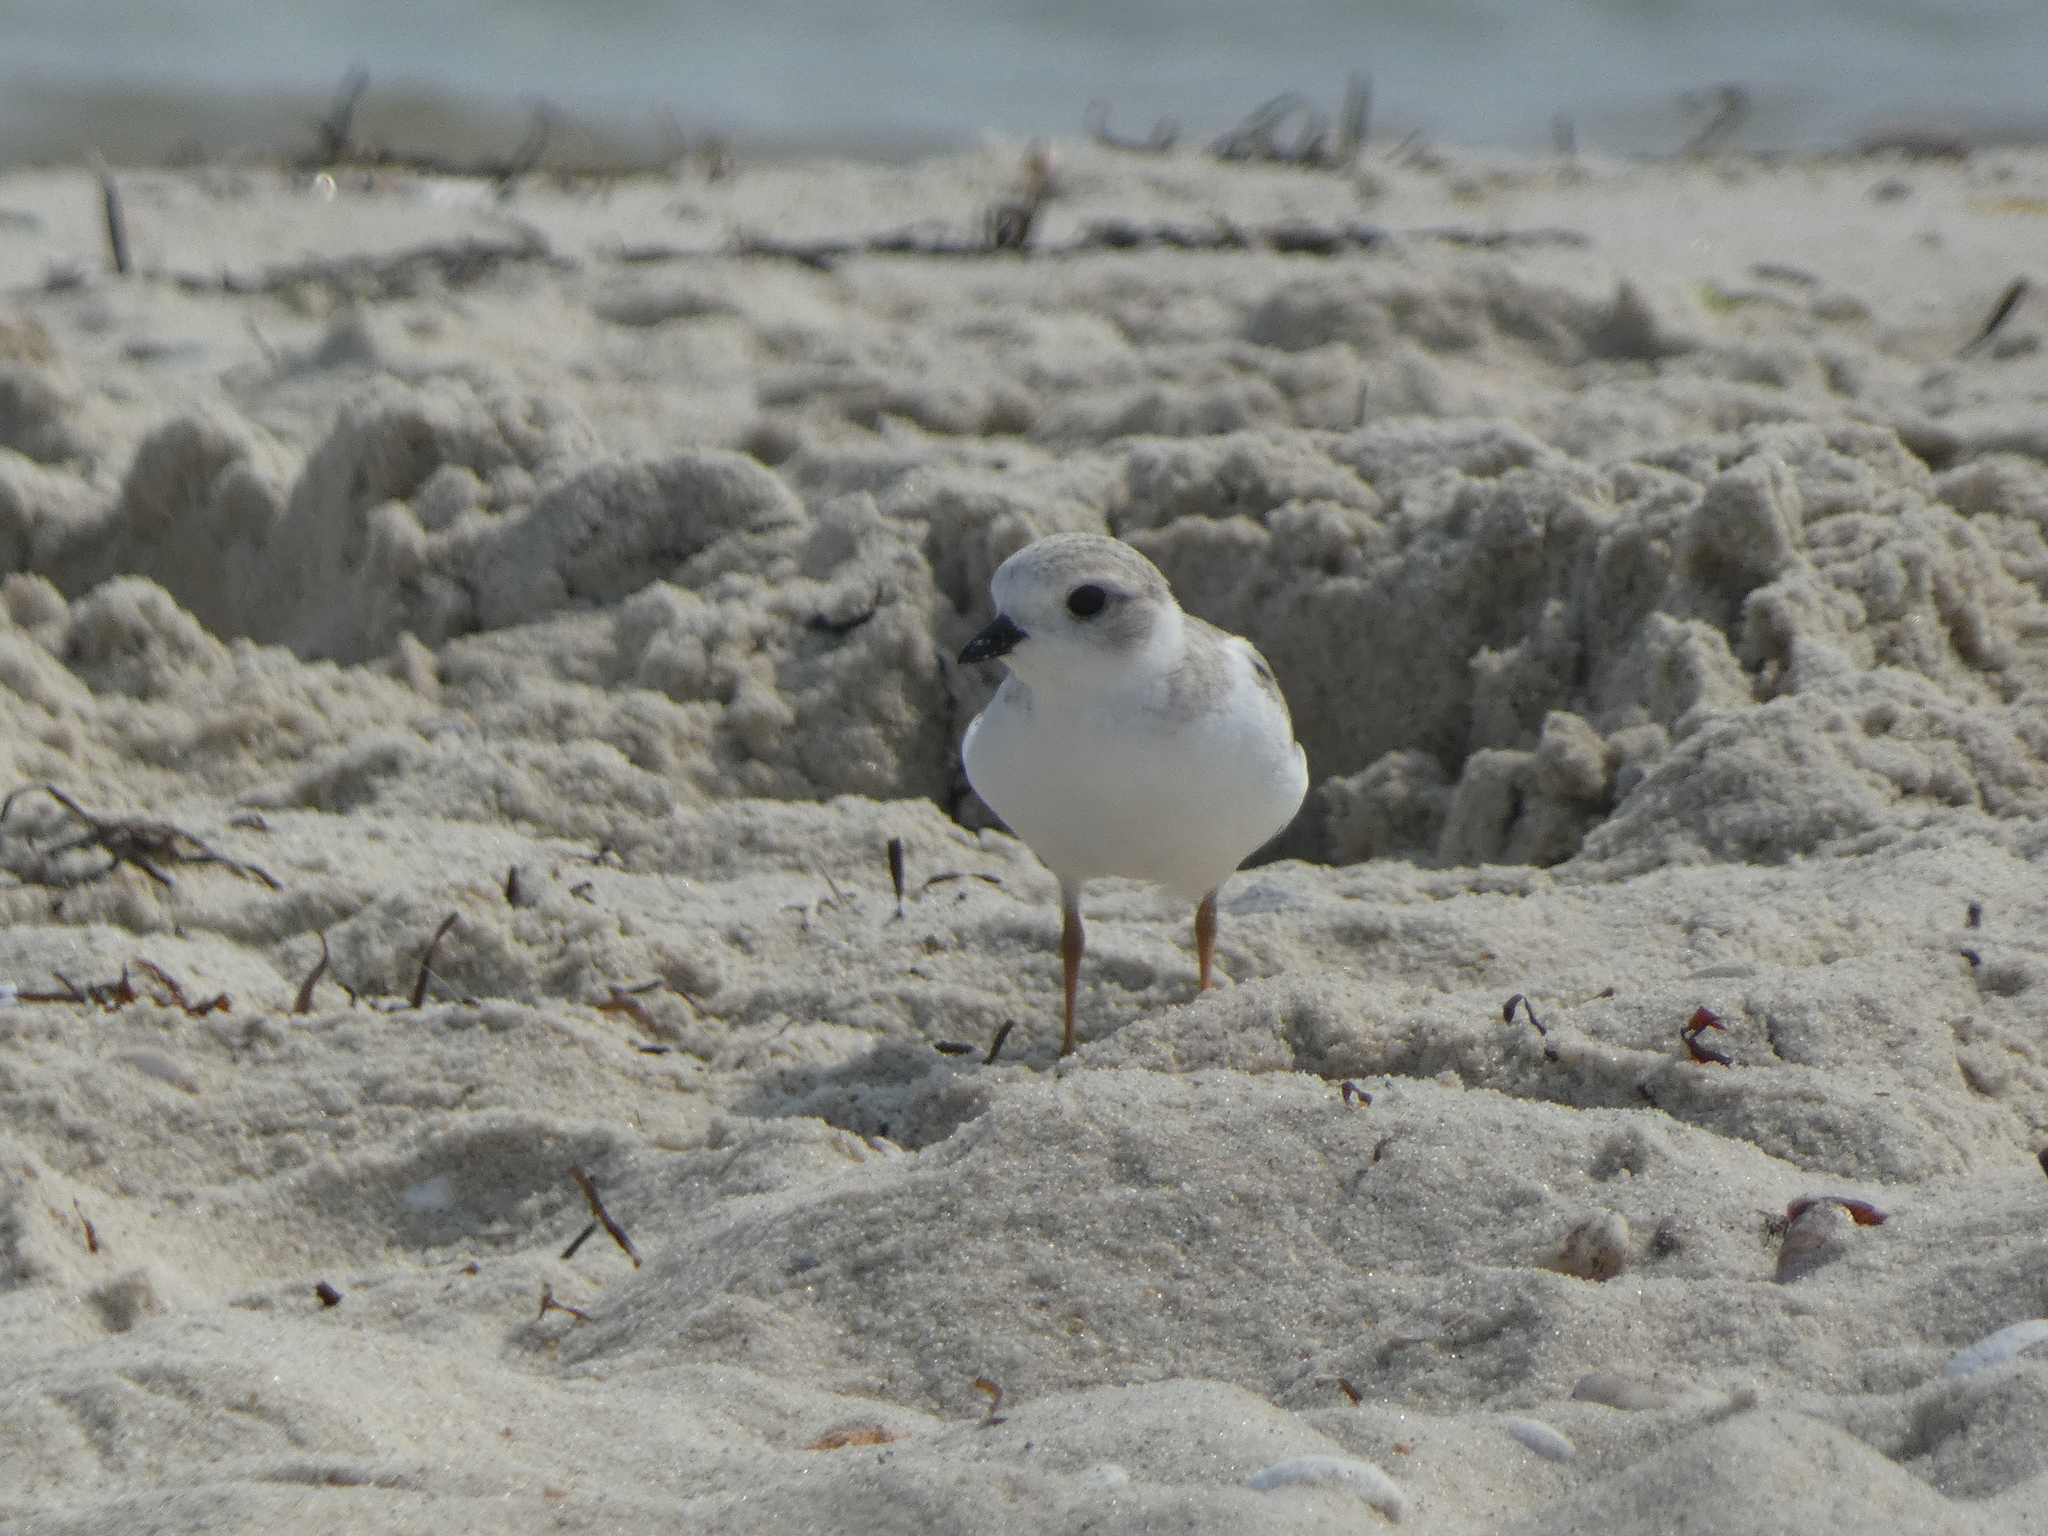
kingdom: Animalia
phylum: Chordata
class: Aves
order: Charadriiformes
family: Charadriidae
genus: Charadrius
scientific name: Charadrius melodus
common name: Piping plover
